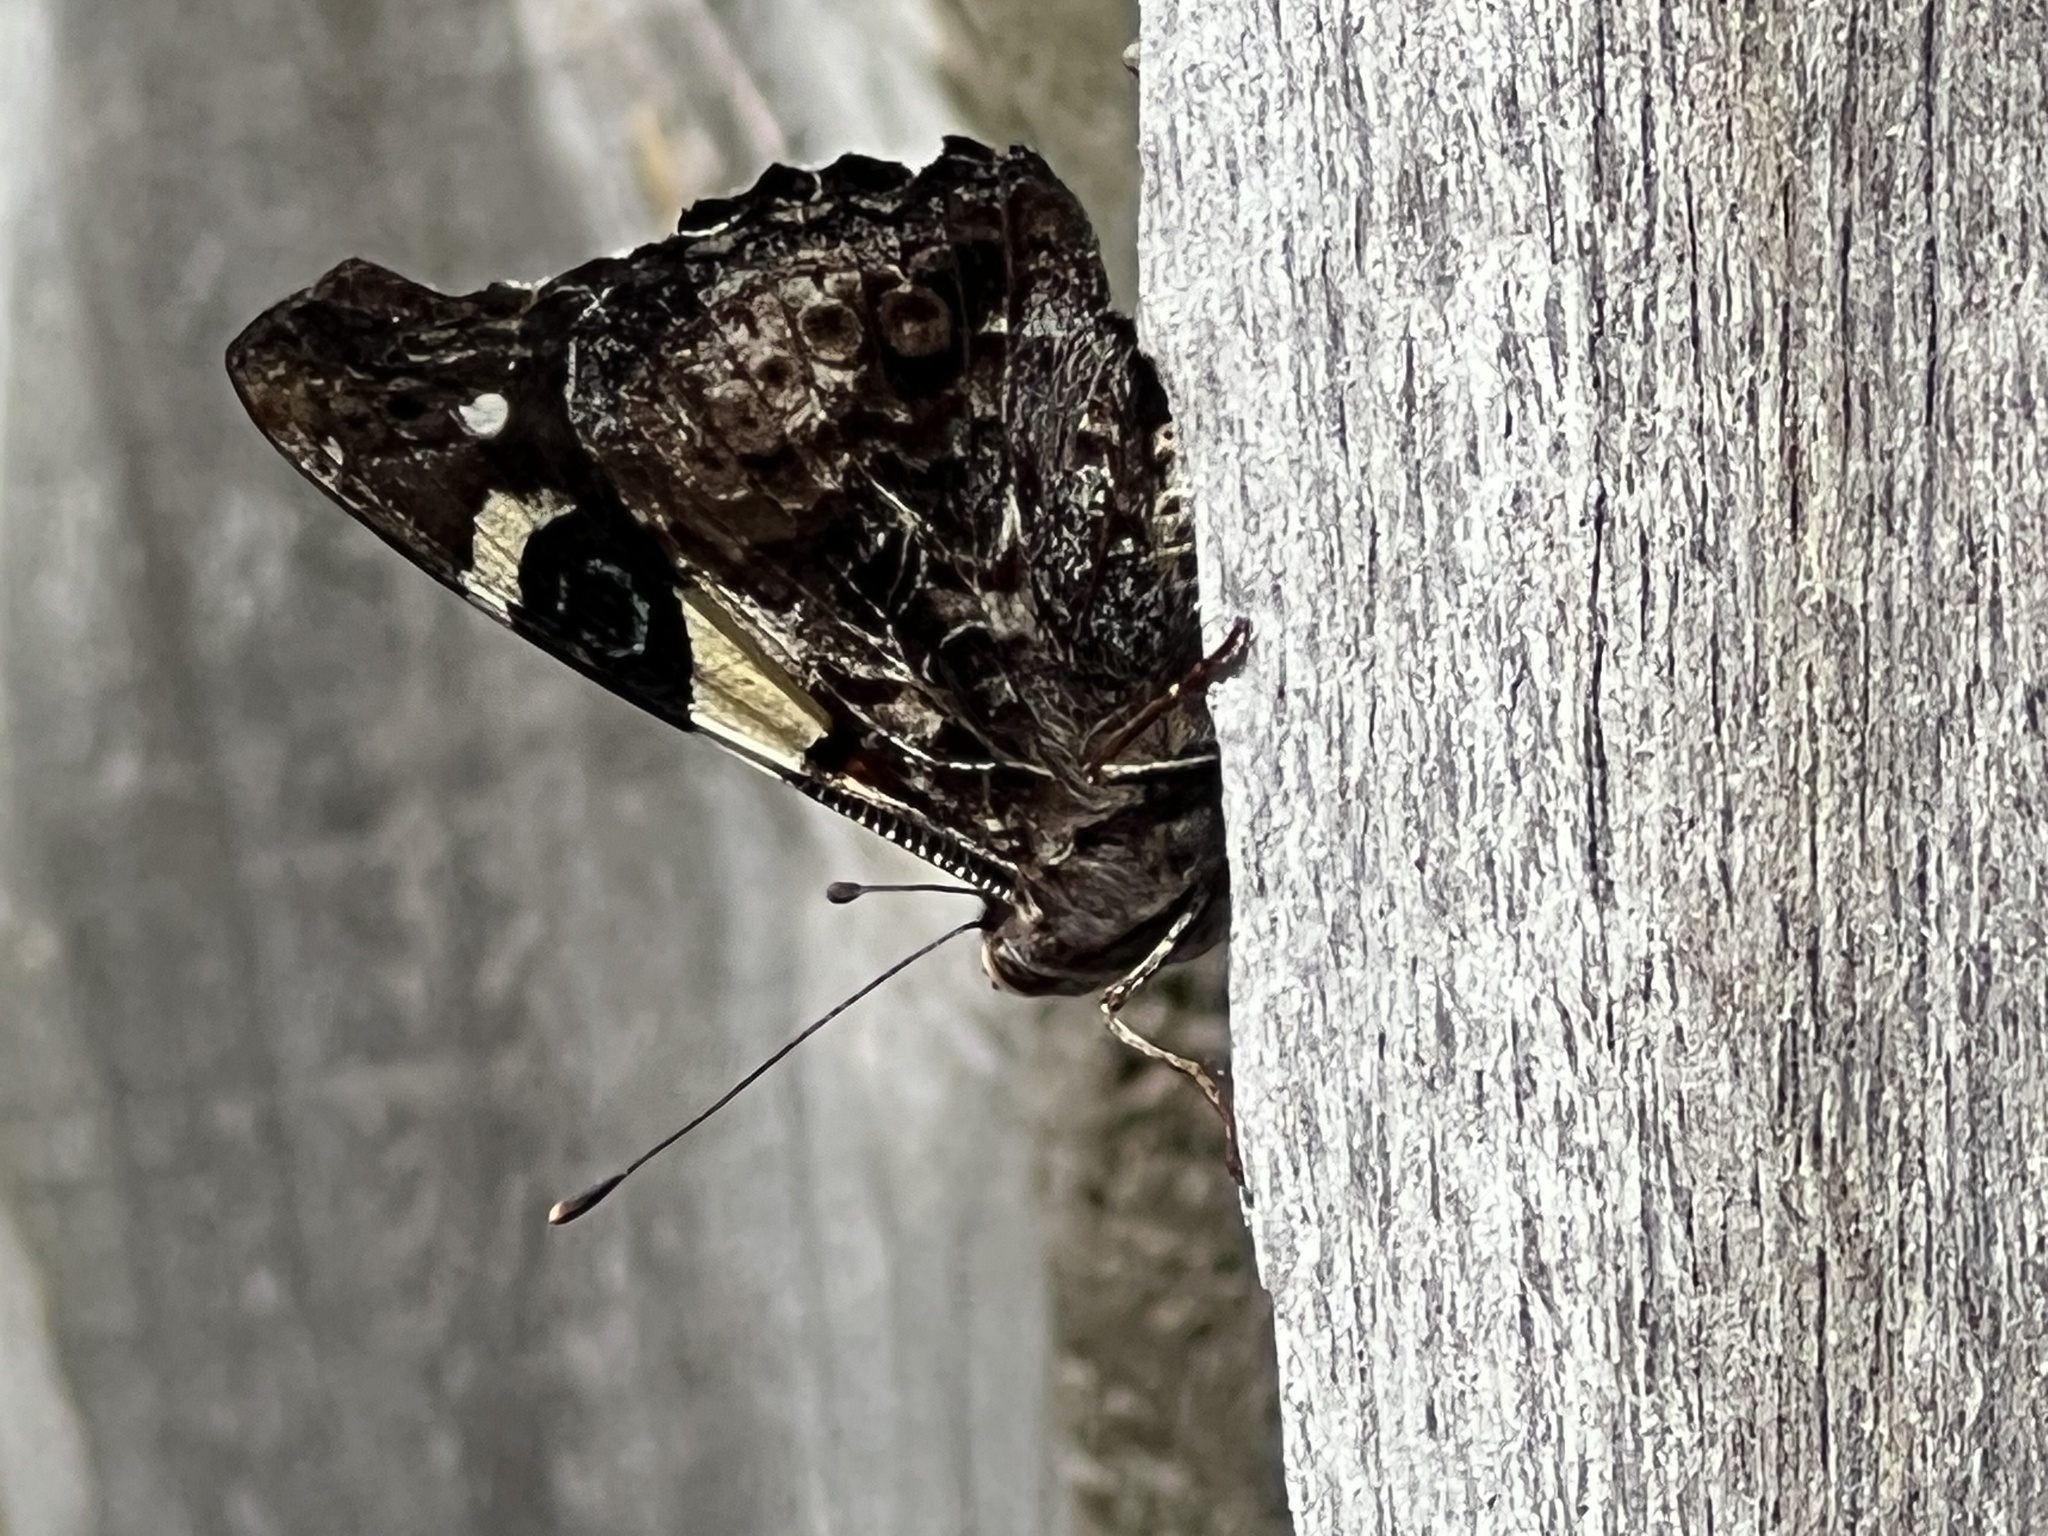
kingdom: Animalia
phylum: Arthropoda
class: Insecta
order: Lepidoptera
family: Nymphalidae
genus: Vanessa
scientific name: Vanessa itea
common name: Yellow admiral
